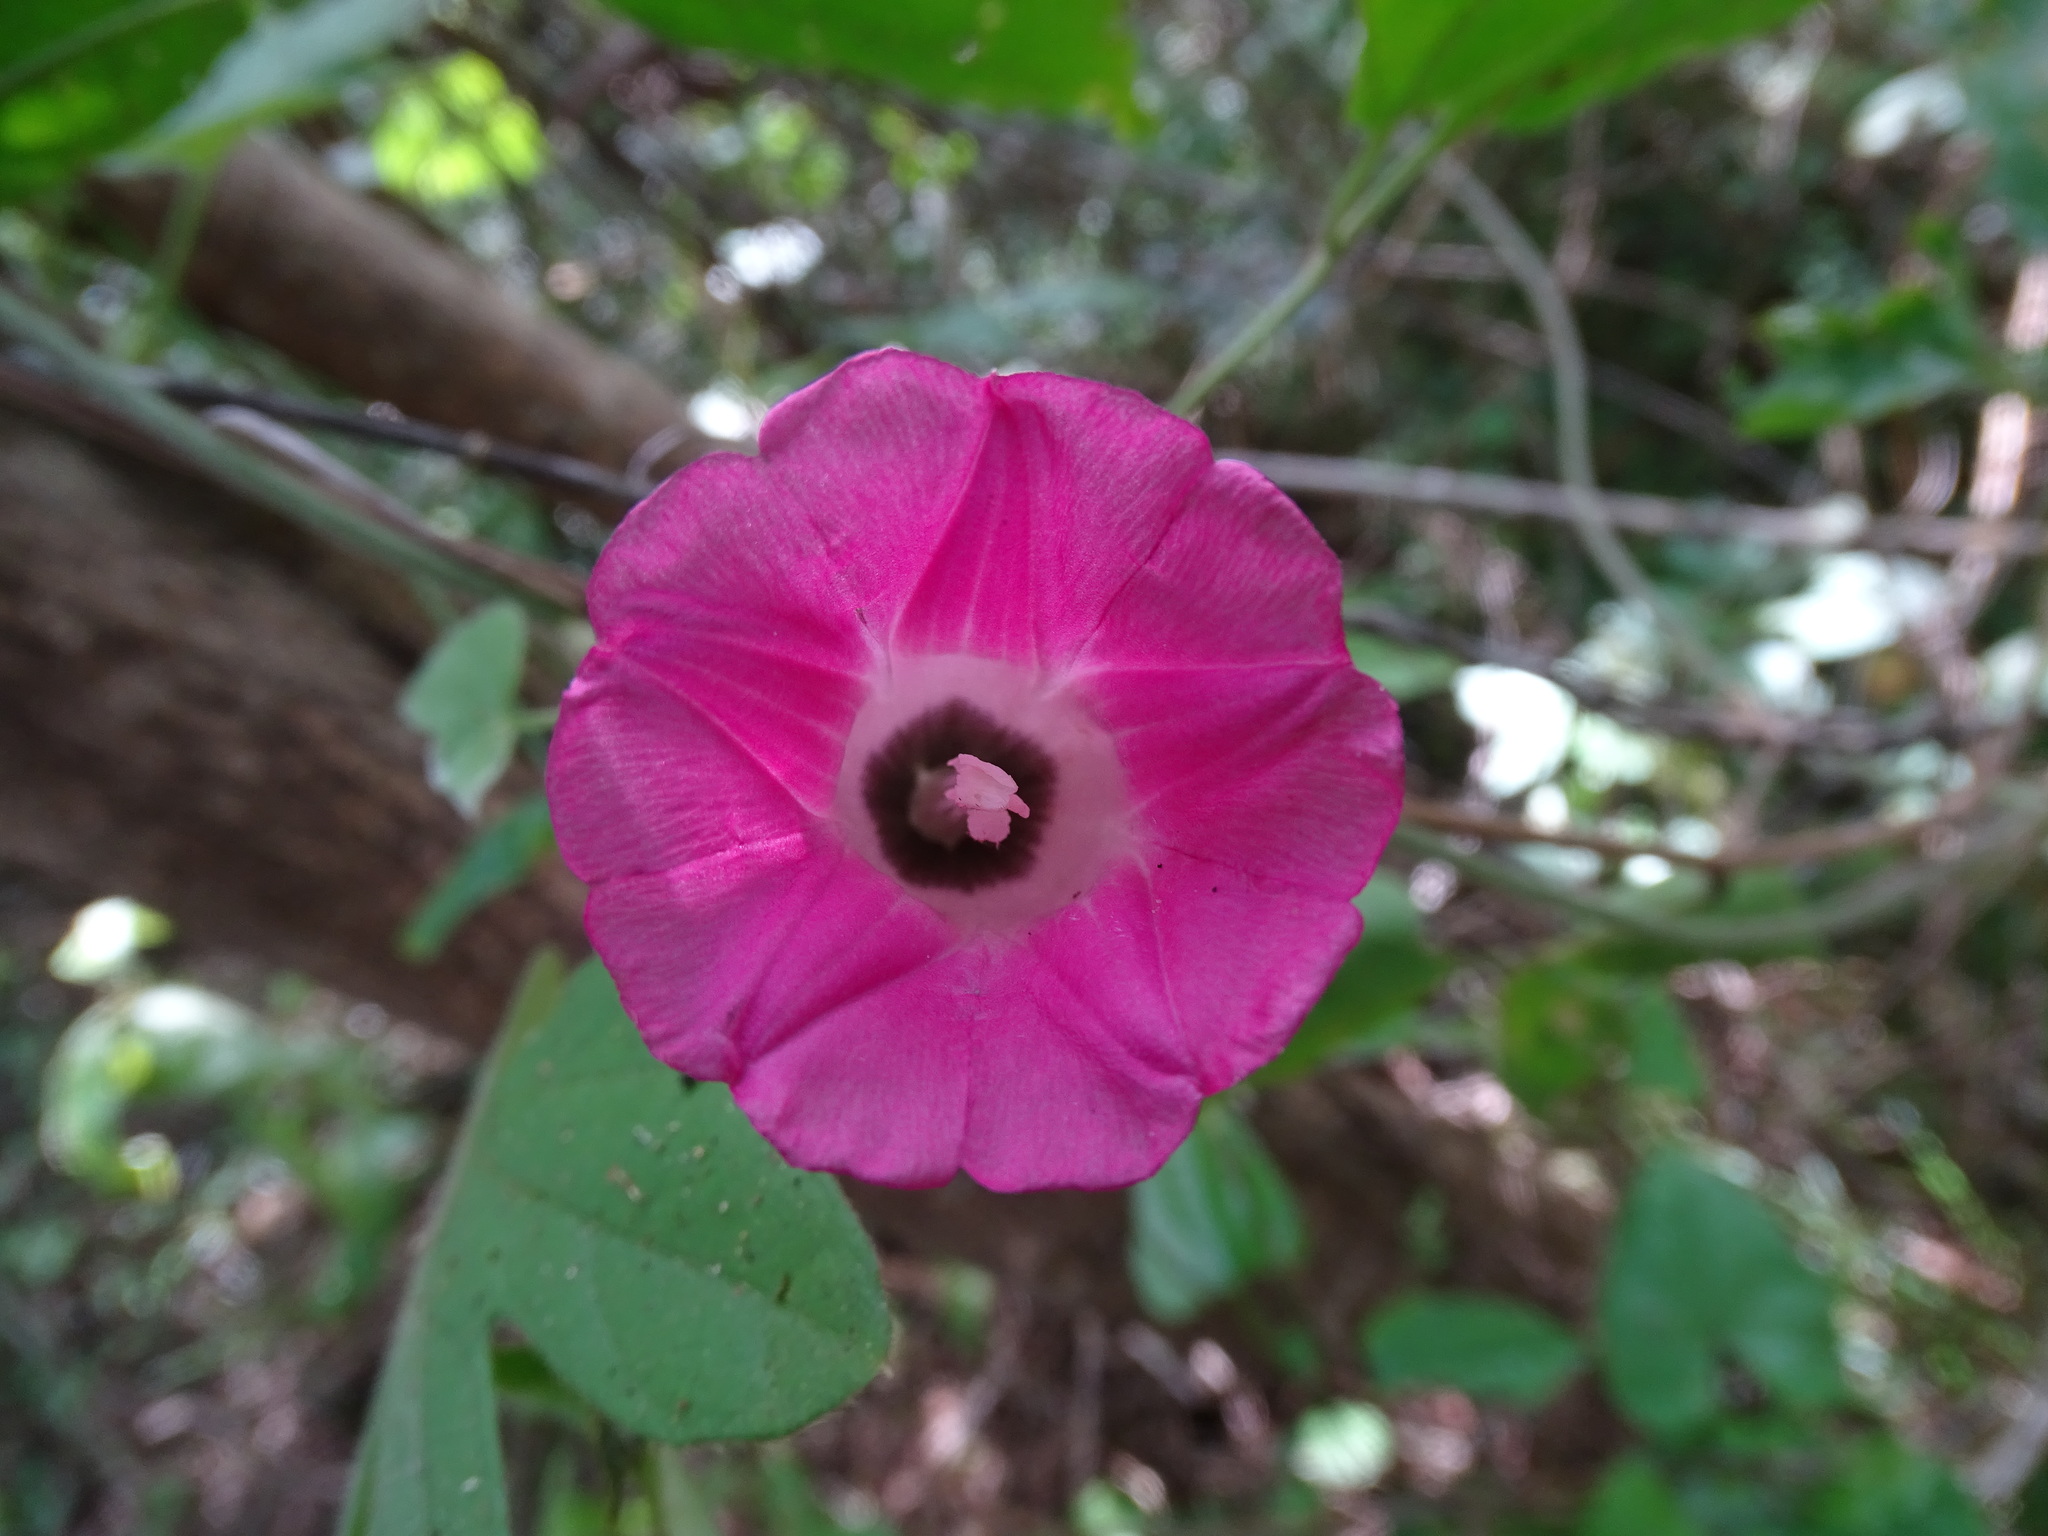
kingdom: Plantae
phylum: Tracheophyta
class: Magnoliopsida
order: Solanales
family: Convolvulaceae
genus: Ipomoea
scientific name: Ipomoea peteri
